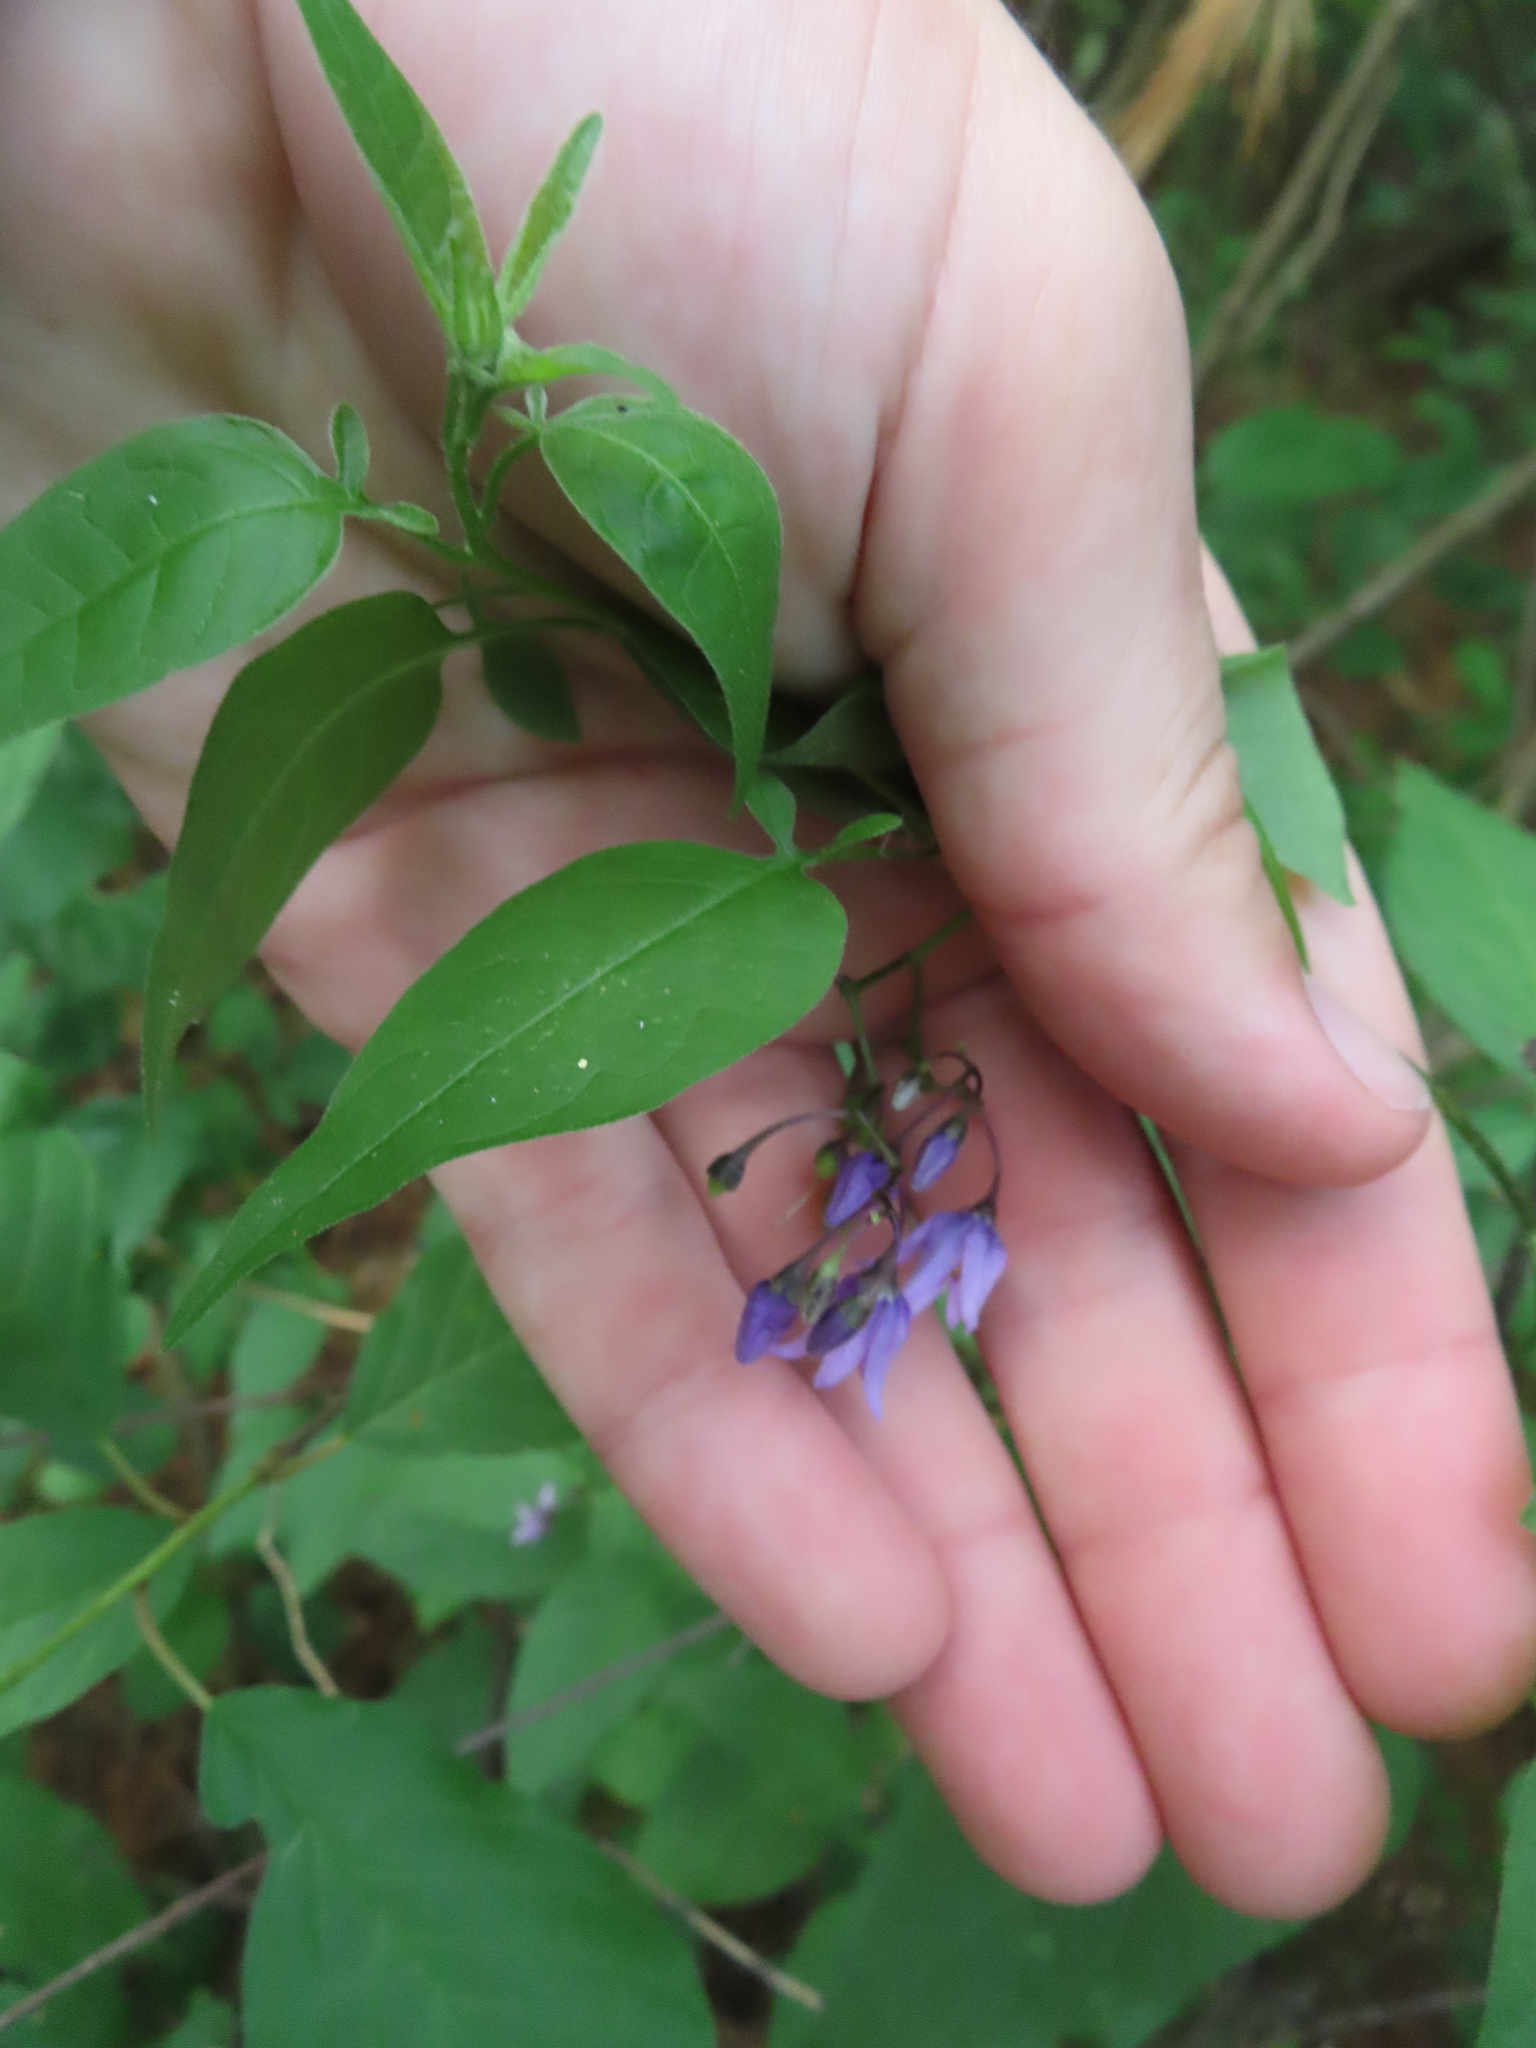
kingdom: Plantae
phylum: Tracheophyta
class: Magnoliopsida
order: Solanales
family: Solanaceae
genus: Solanum
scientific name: Solanum dulcamara
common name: Climbing nightshade
